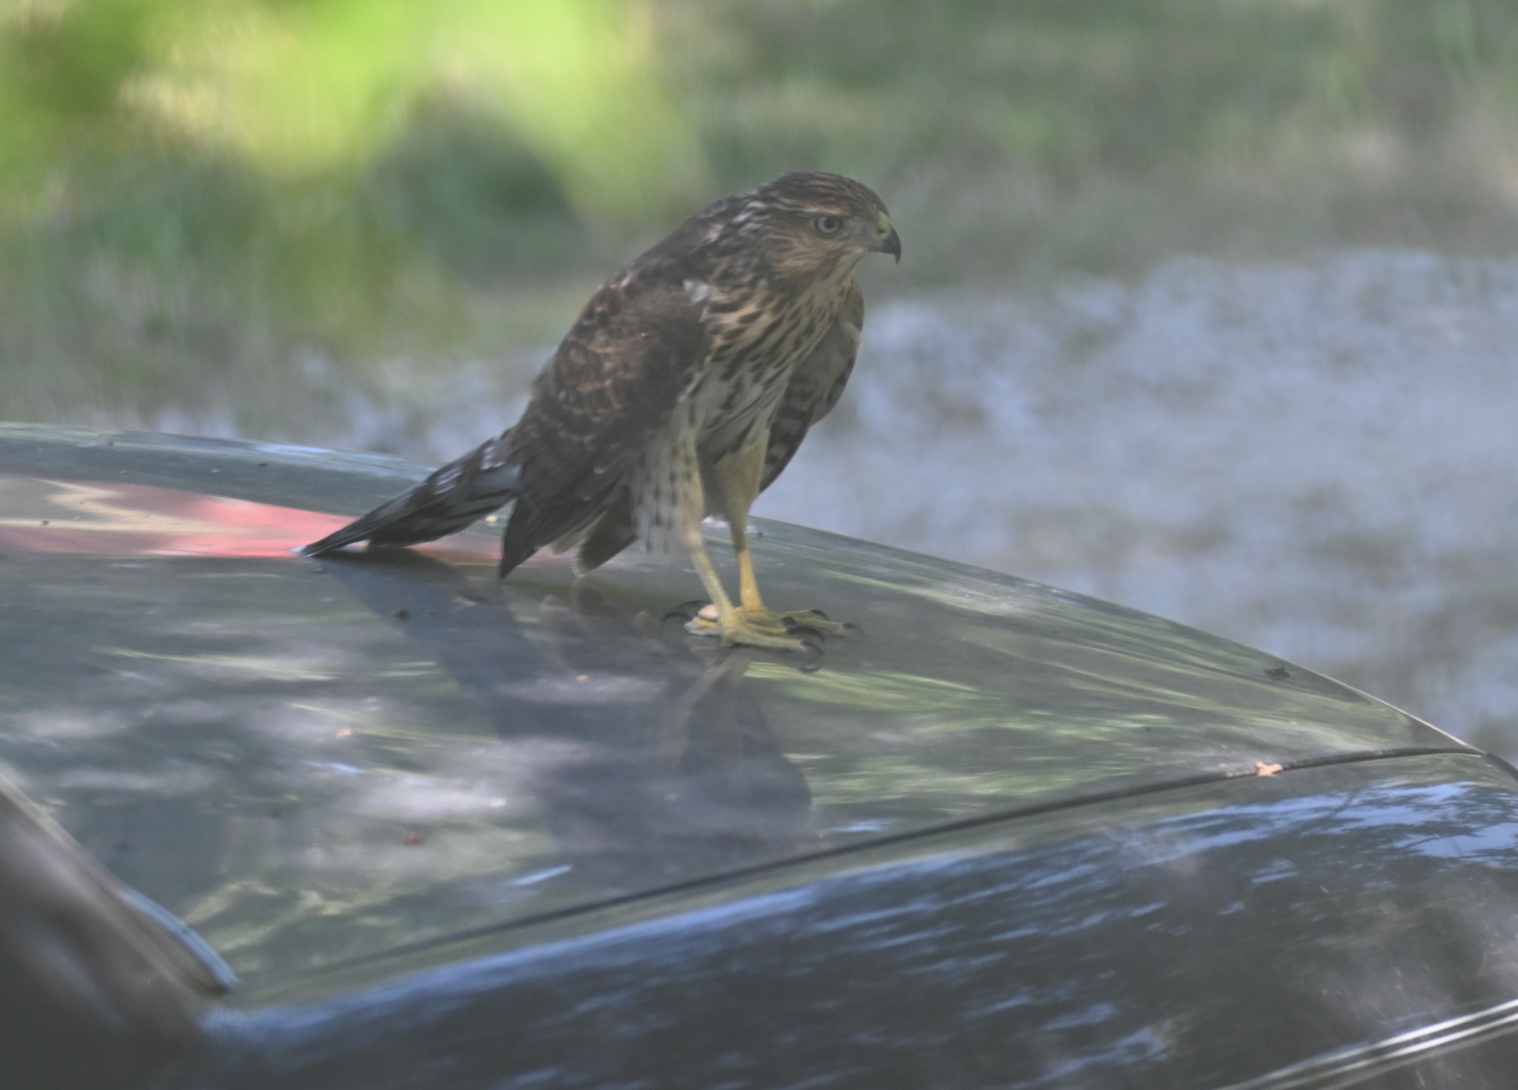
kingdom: Animalia
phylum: Chordata
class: Aves
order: Accipitriformes
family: Accipitridae
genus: Accipiter
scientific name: Accipiter cooperii
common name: Cooper's hawk
